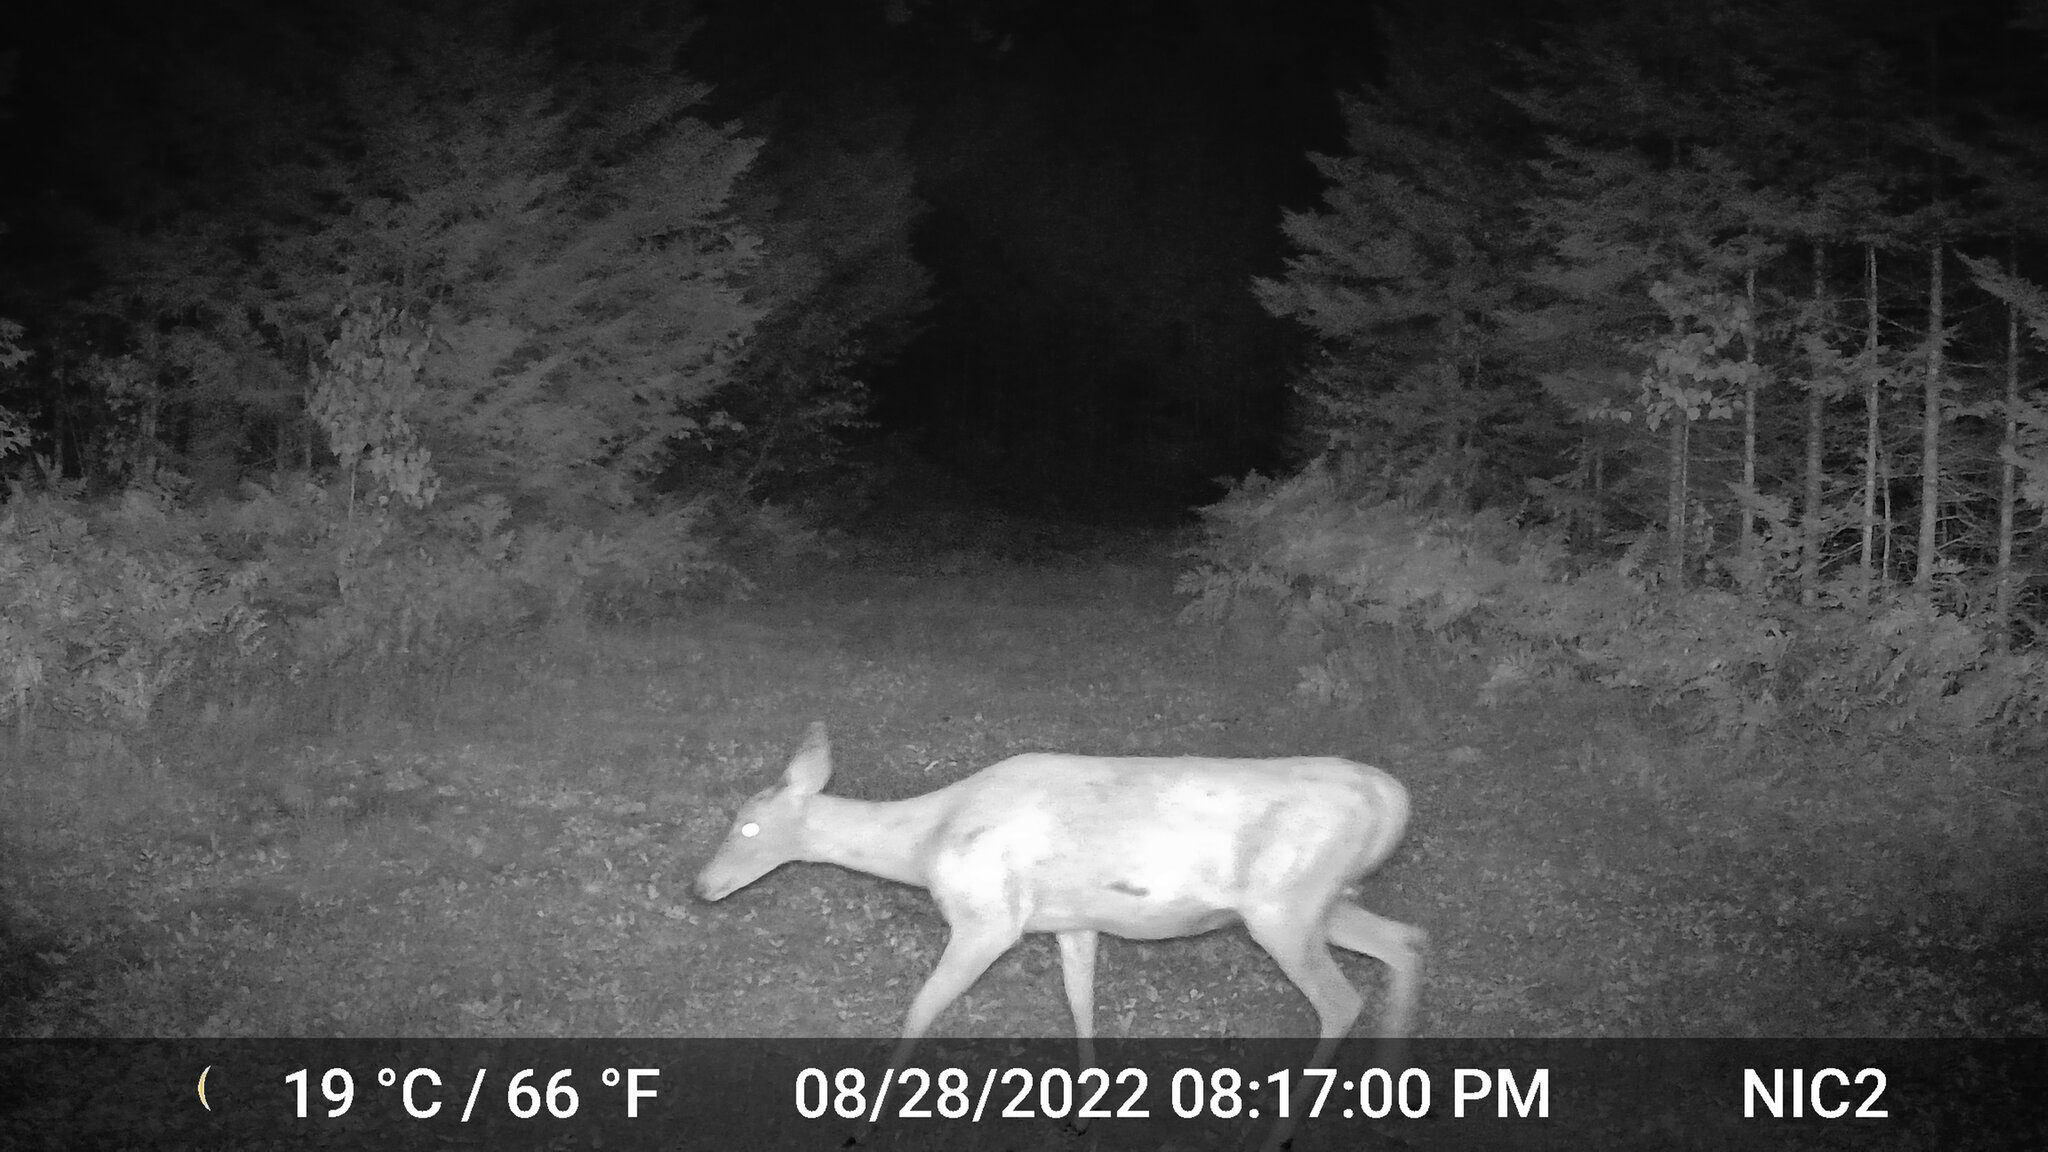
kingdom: Animalia
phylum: Chordata
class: Mammalia
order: Artiodactyla
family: Cervidae
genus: Odocoileus
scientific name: Odocoileus virginianus
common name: White-tailed deer
